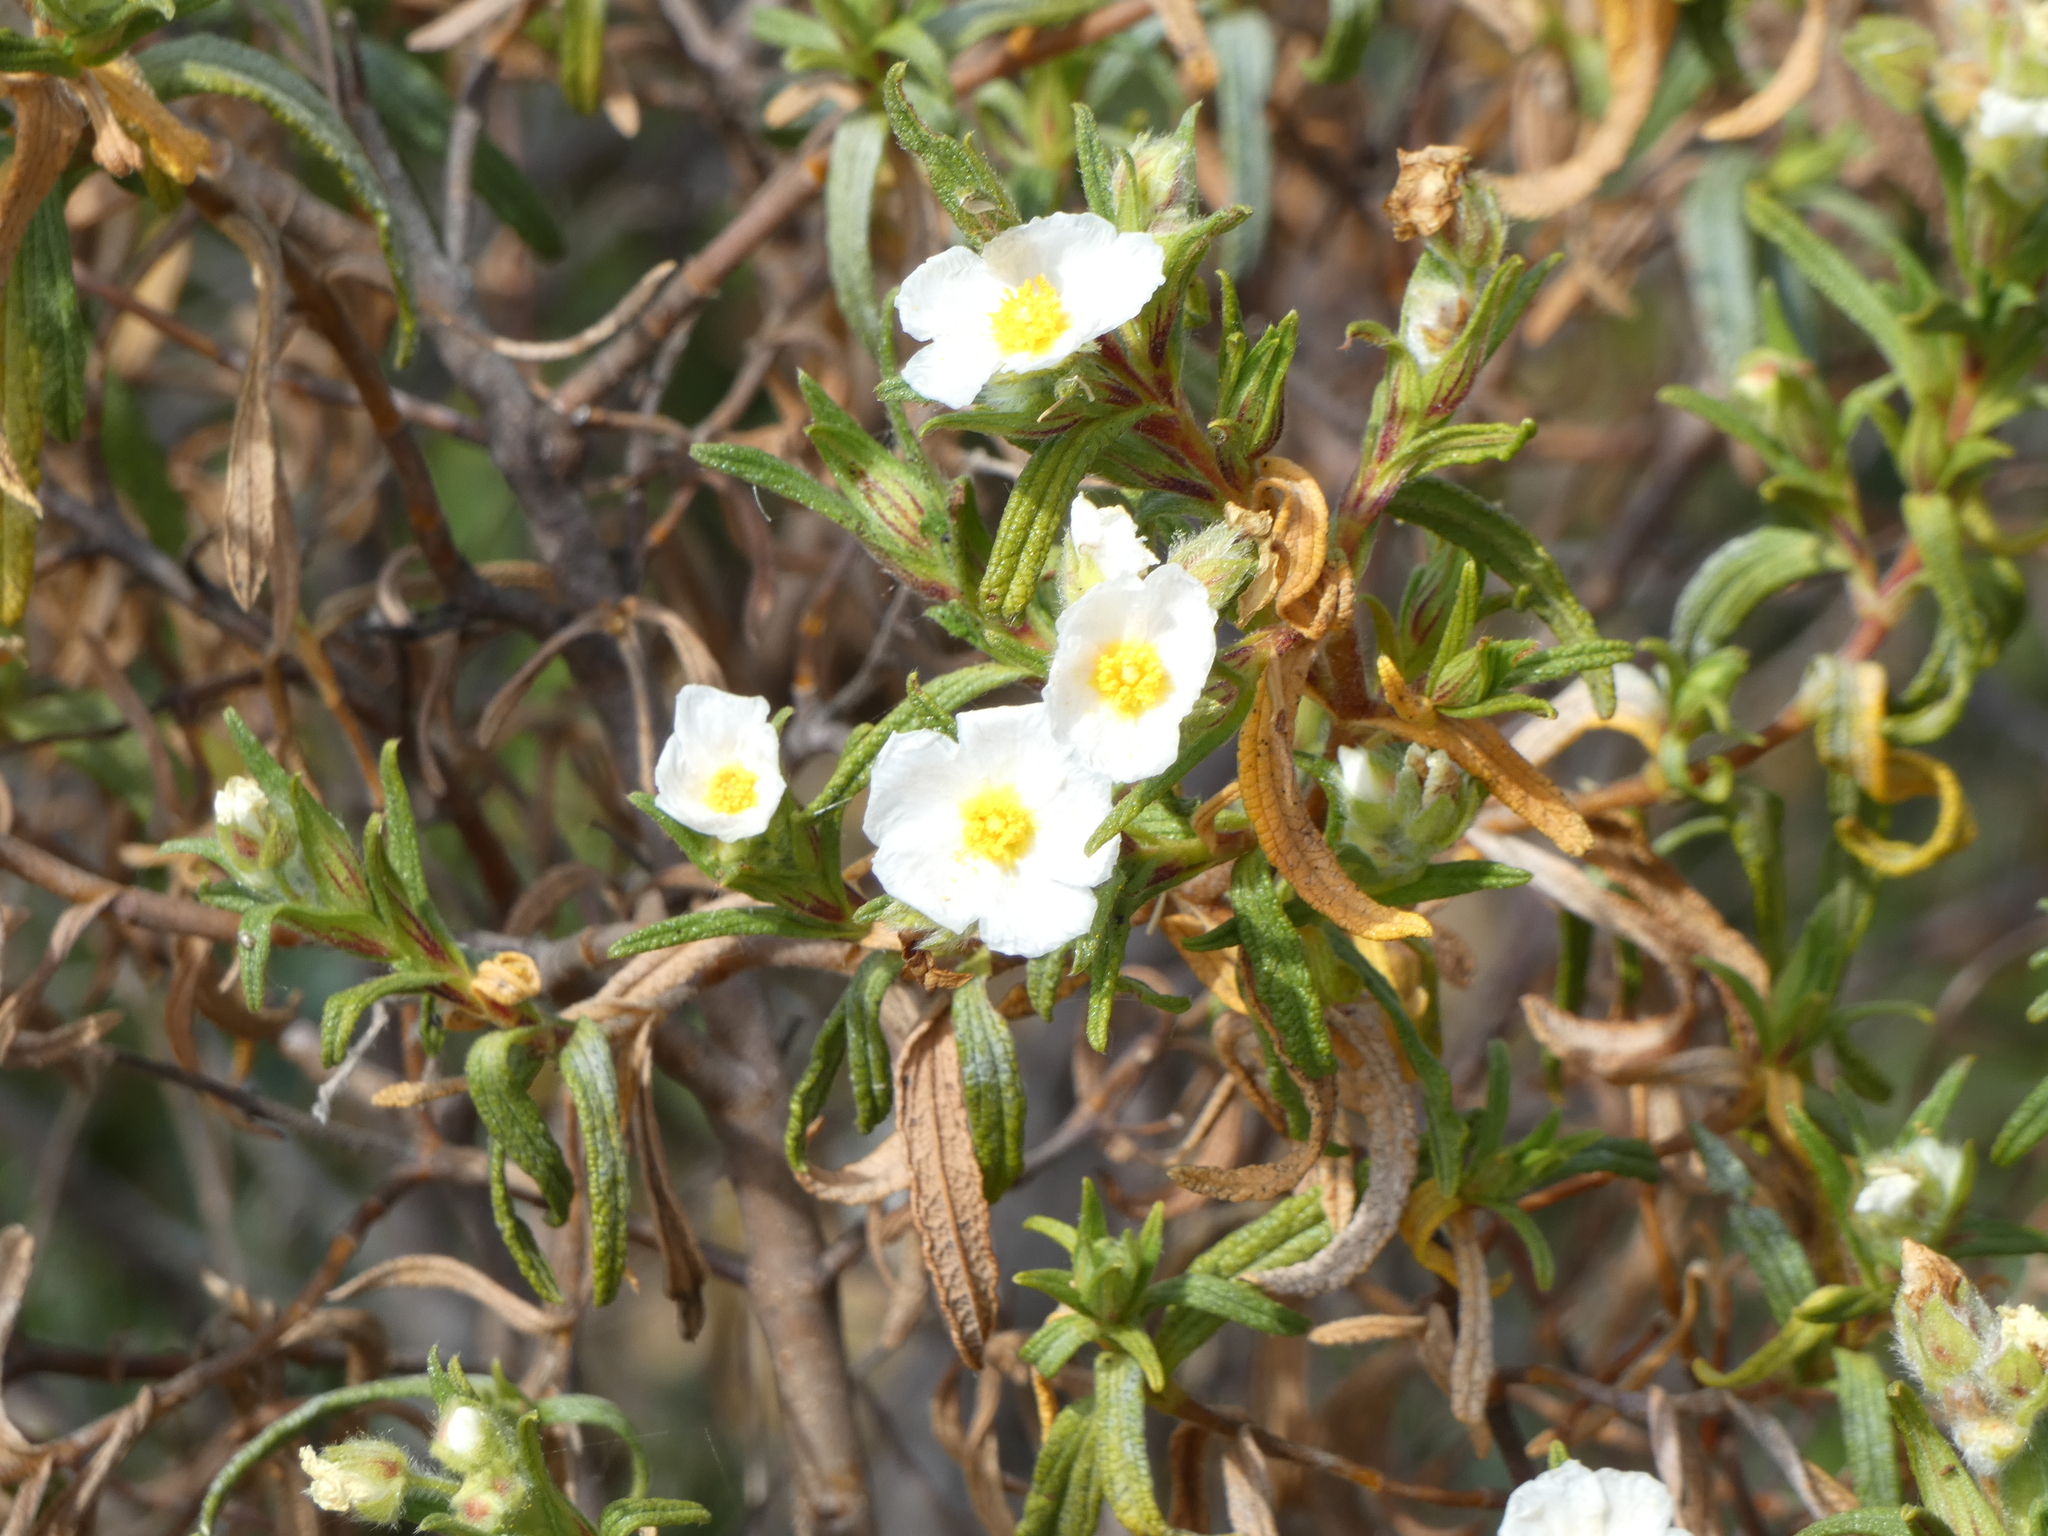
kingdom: Plantae
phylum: Tracheophyta
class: Magnoliopsida
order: Malvales
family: Cistaceae
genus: Cistus
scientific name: Cistus monspeliensis
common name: Montpelier cistus
